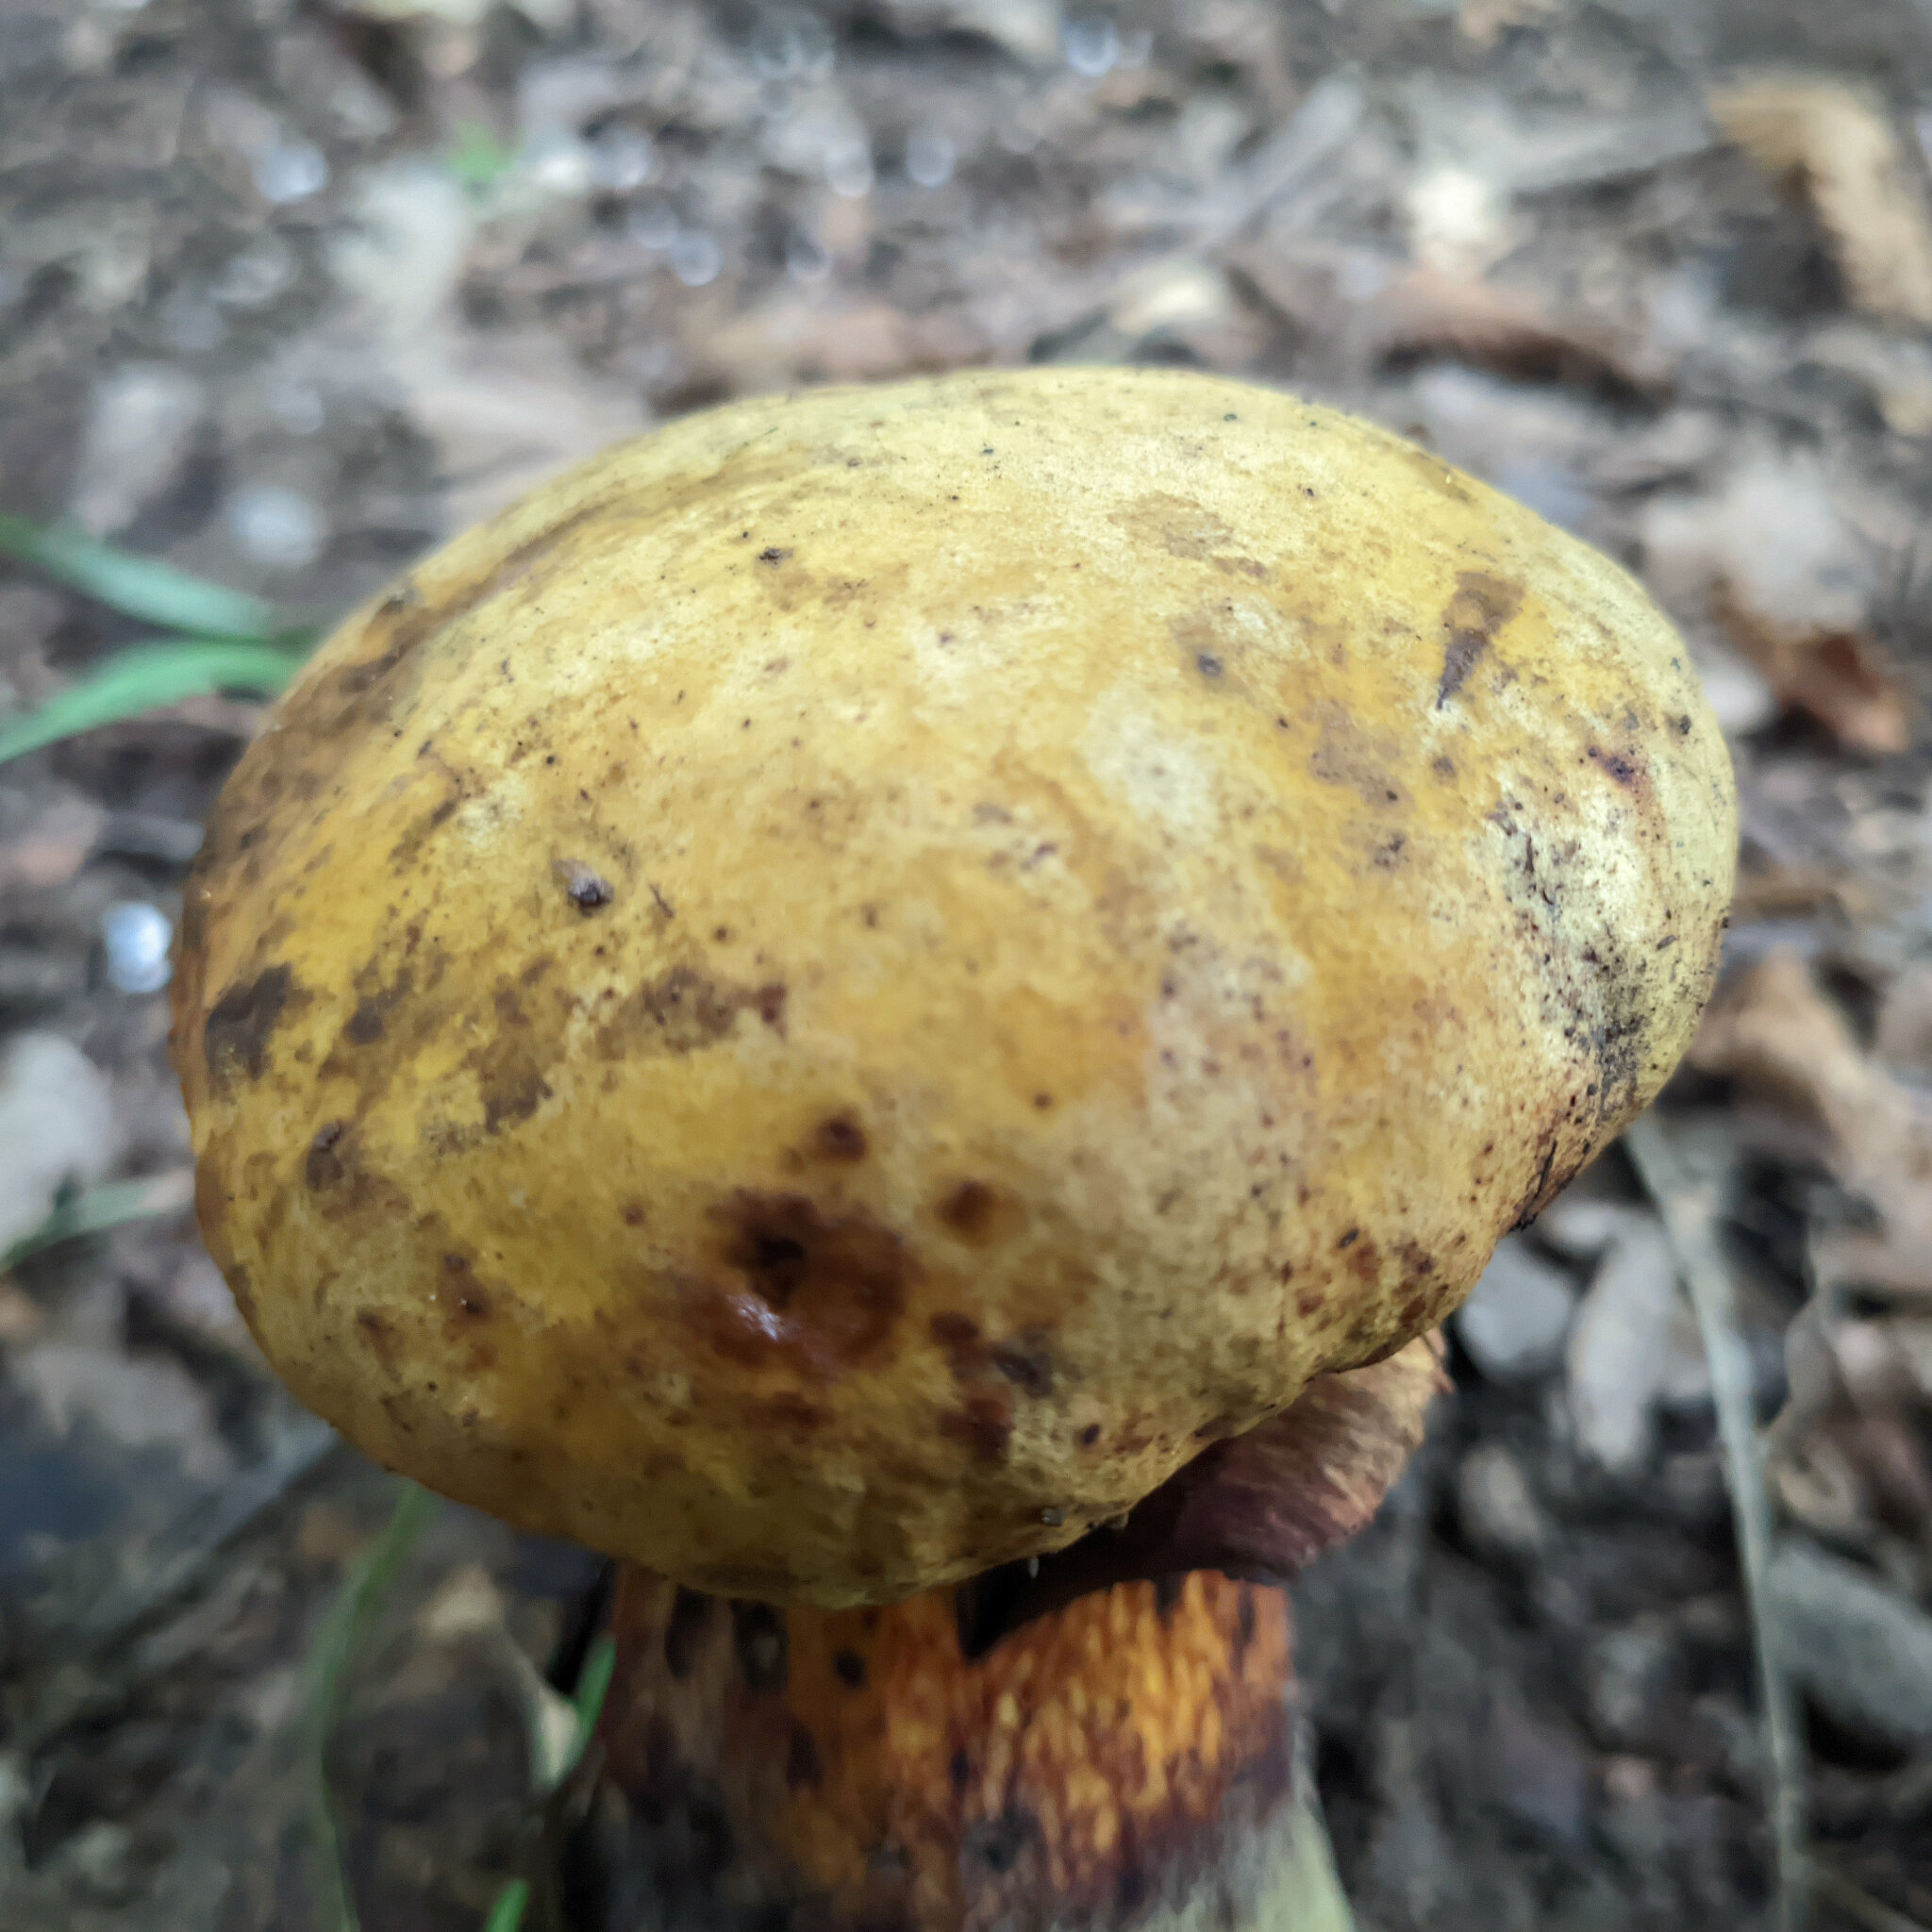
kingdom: Fungi
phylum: Basidiomycota
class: Agaricomycetes
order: Boletales
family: Boletaceae
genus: Suillellus
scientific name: Suillellus luridus
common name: Lurid bolete
